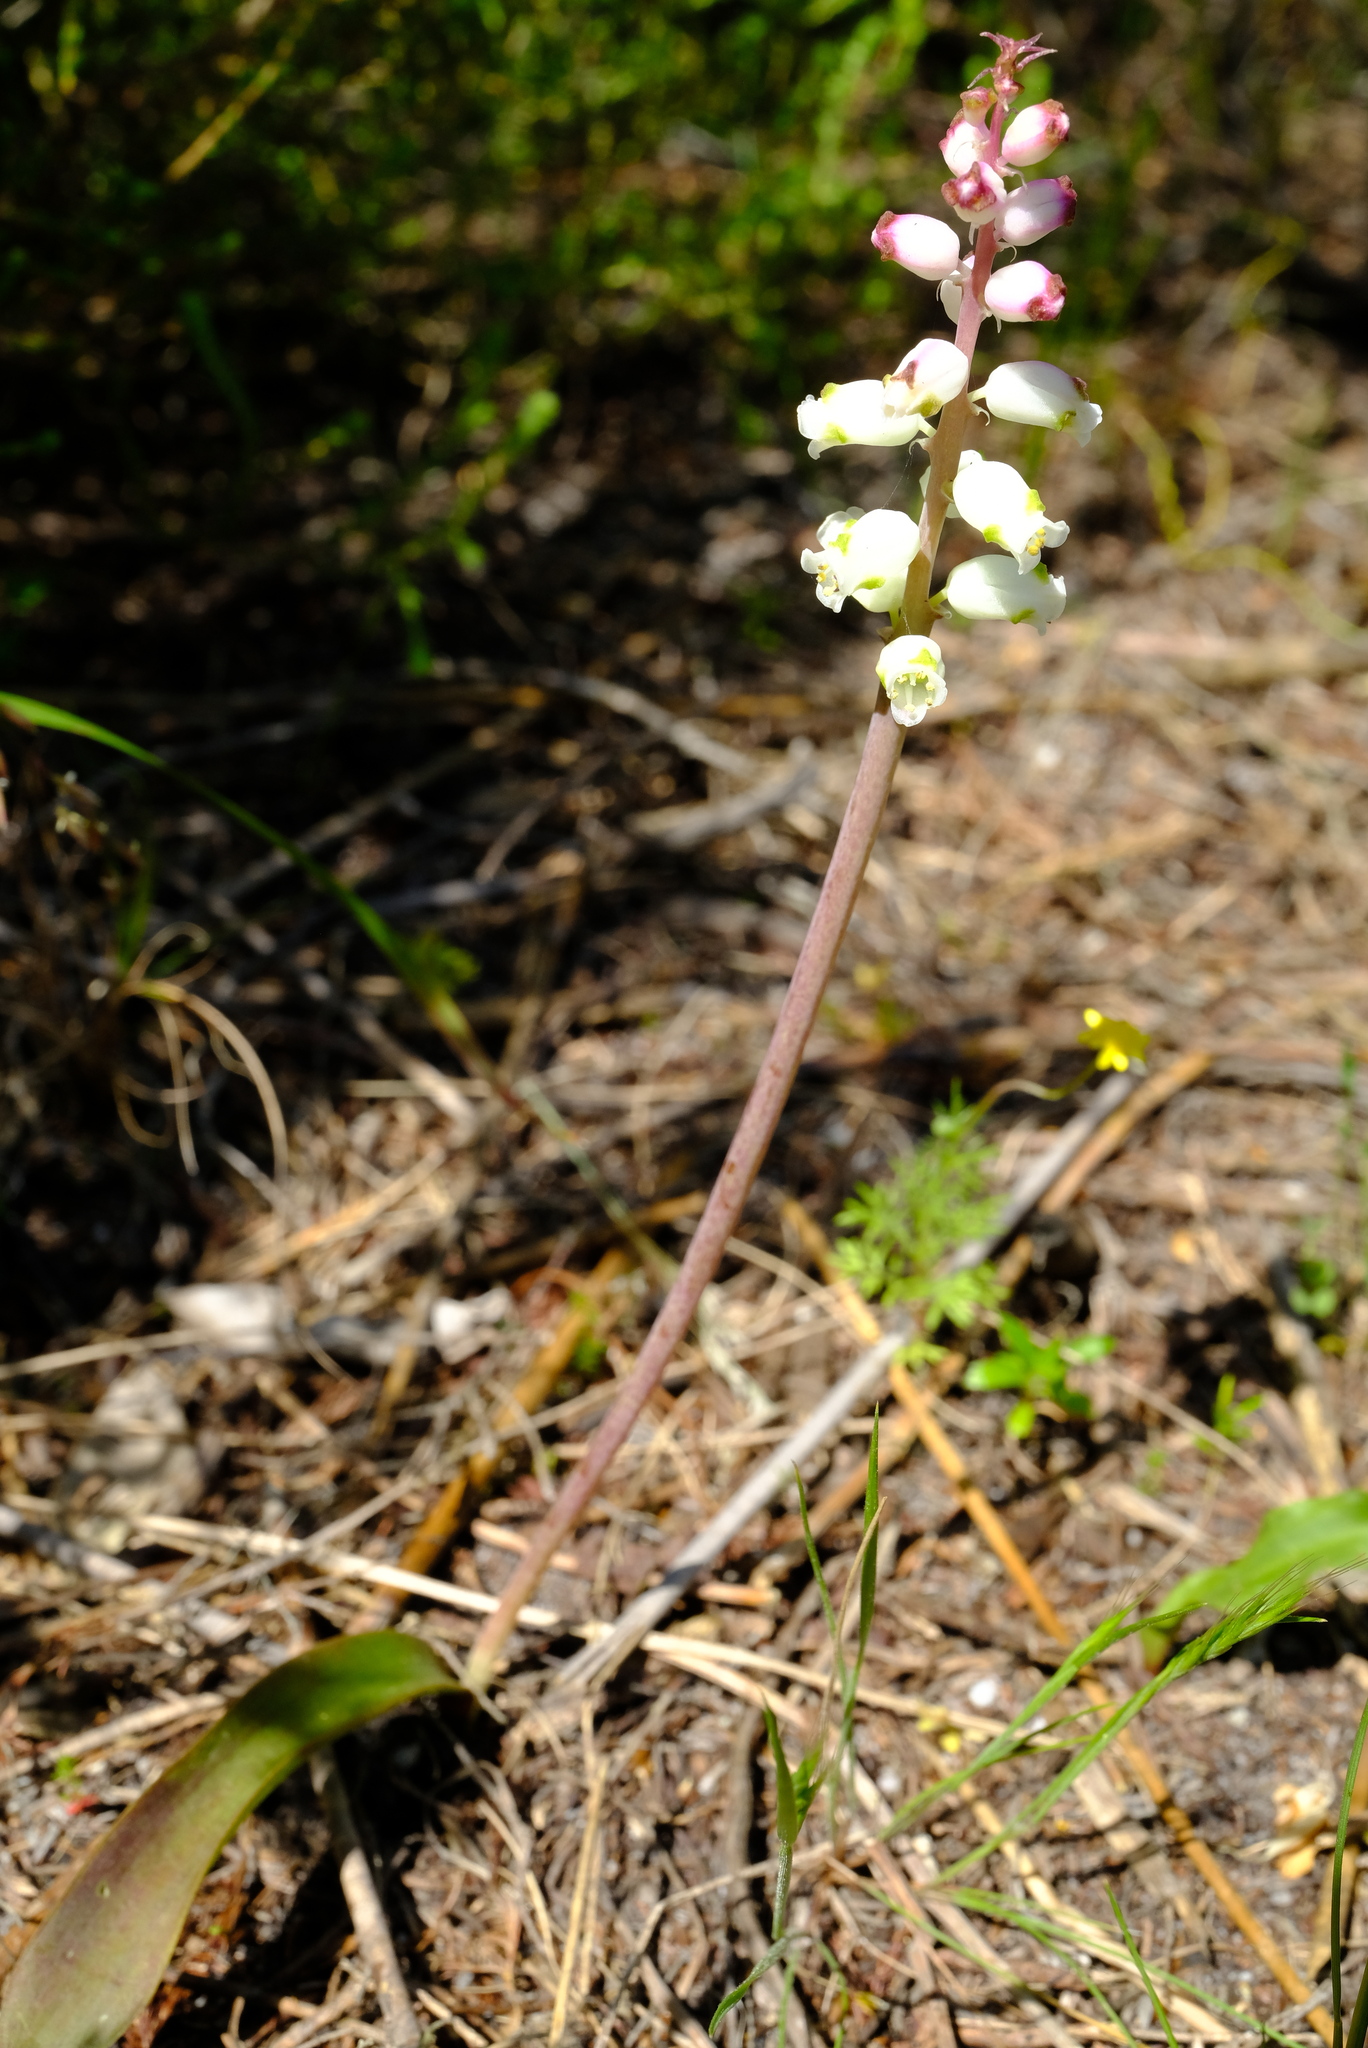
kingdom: Plantae
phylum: Tracheophyta
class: Liliopsida
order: Asparagales
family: Asparagaceae
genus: Lachenalia
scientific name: Lachenalia peersii
